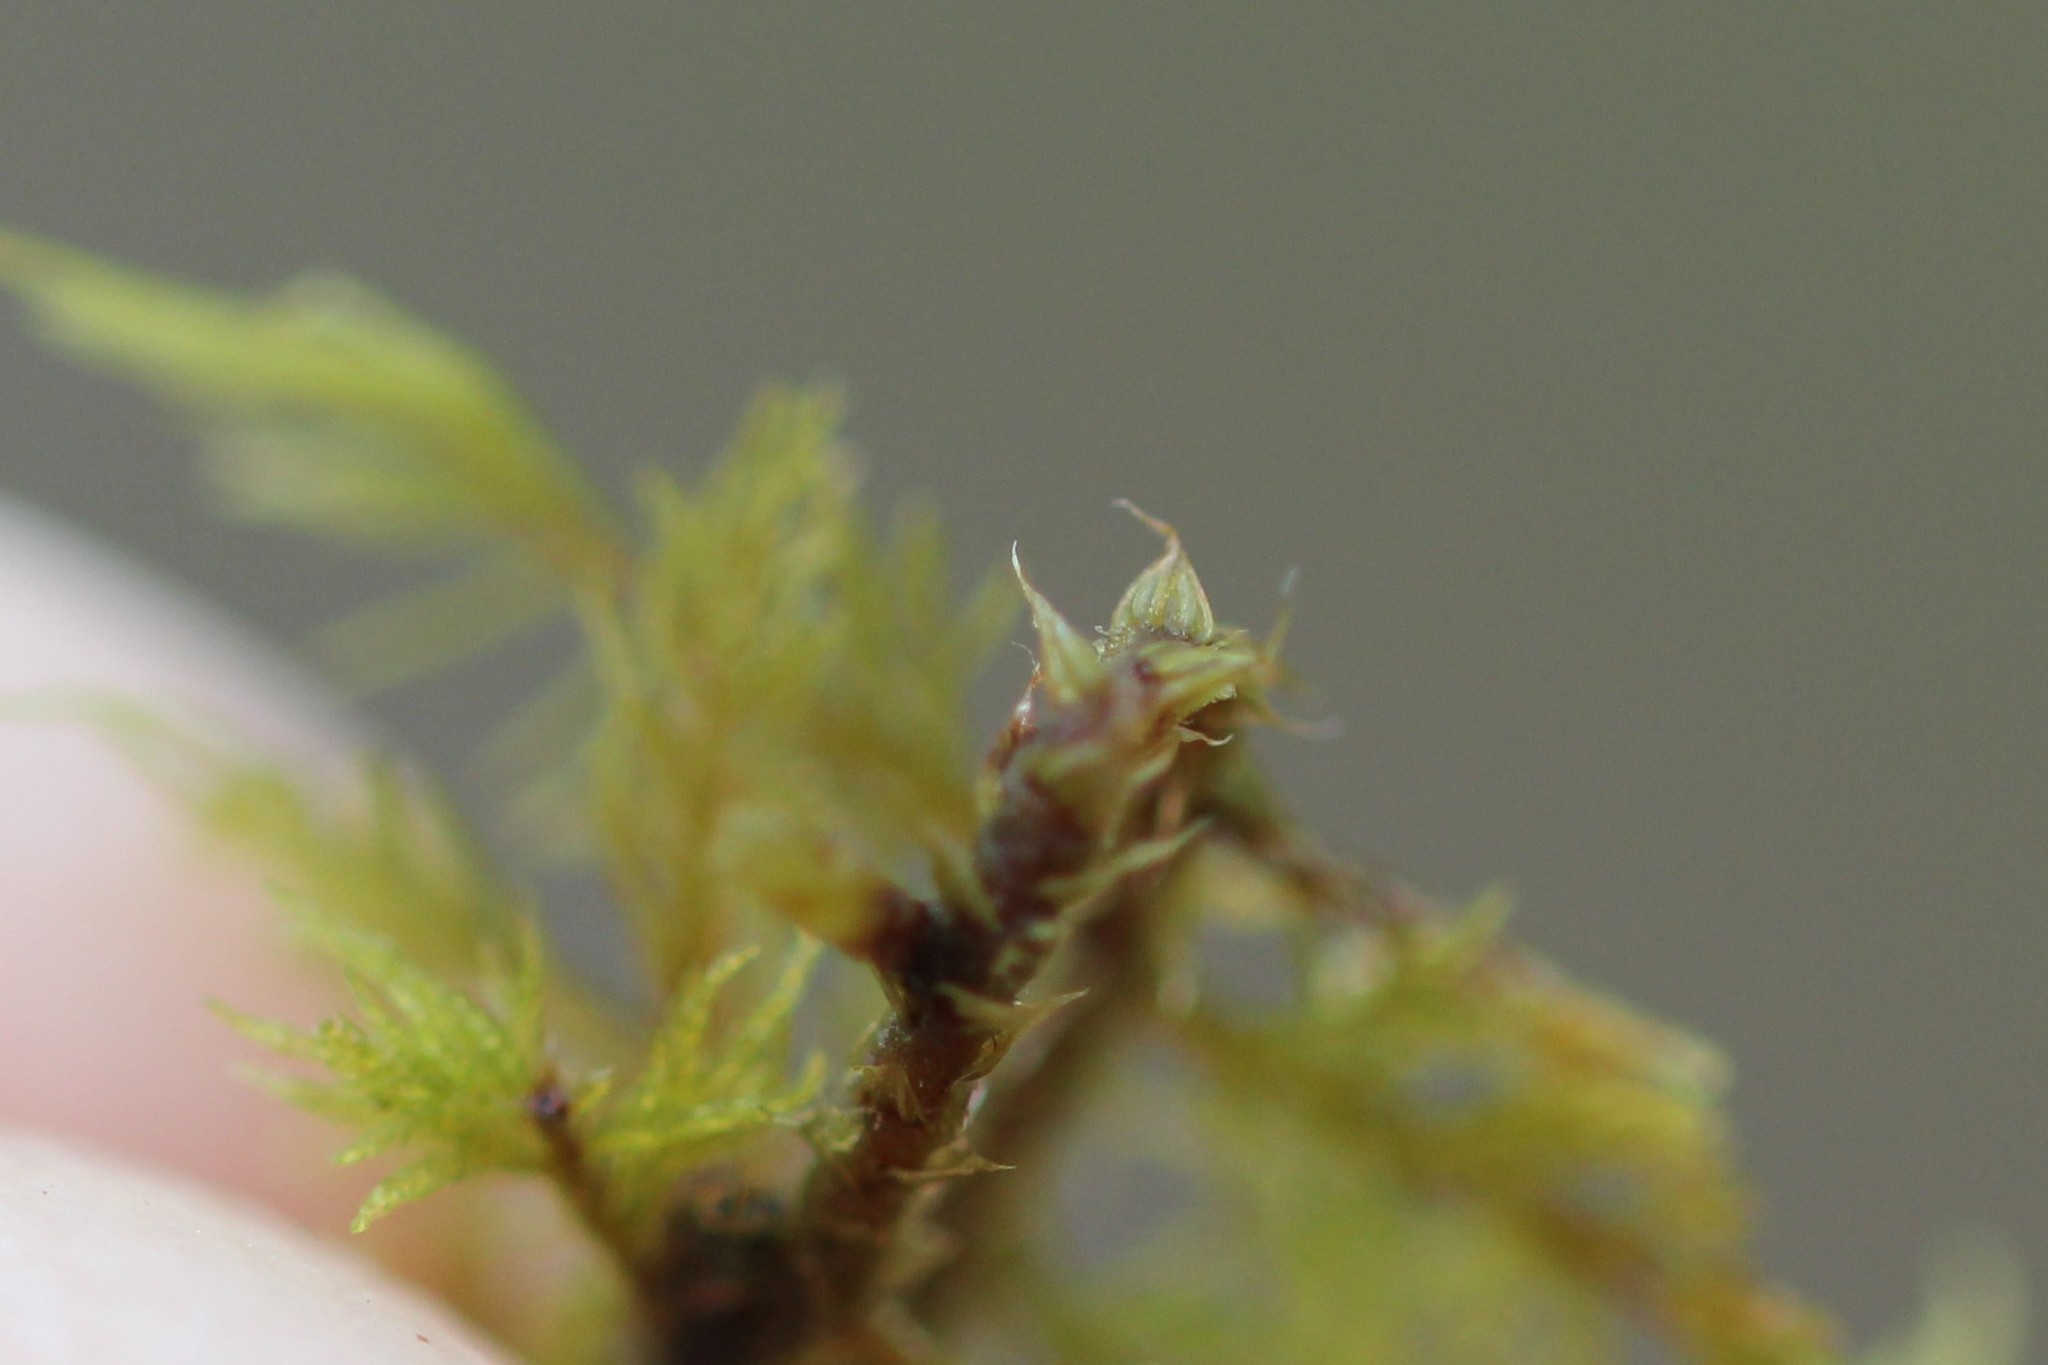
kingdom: Plantae
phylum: Bryophyta
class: Bryopsida
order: Hypnales
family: Thuidiaceae
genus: Thuidium
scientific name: Thuidium delicatulum
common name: Delicate fern moss
